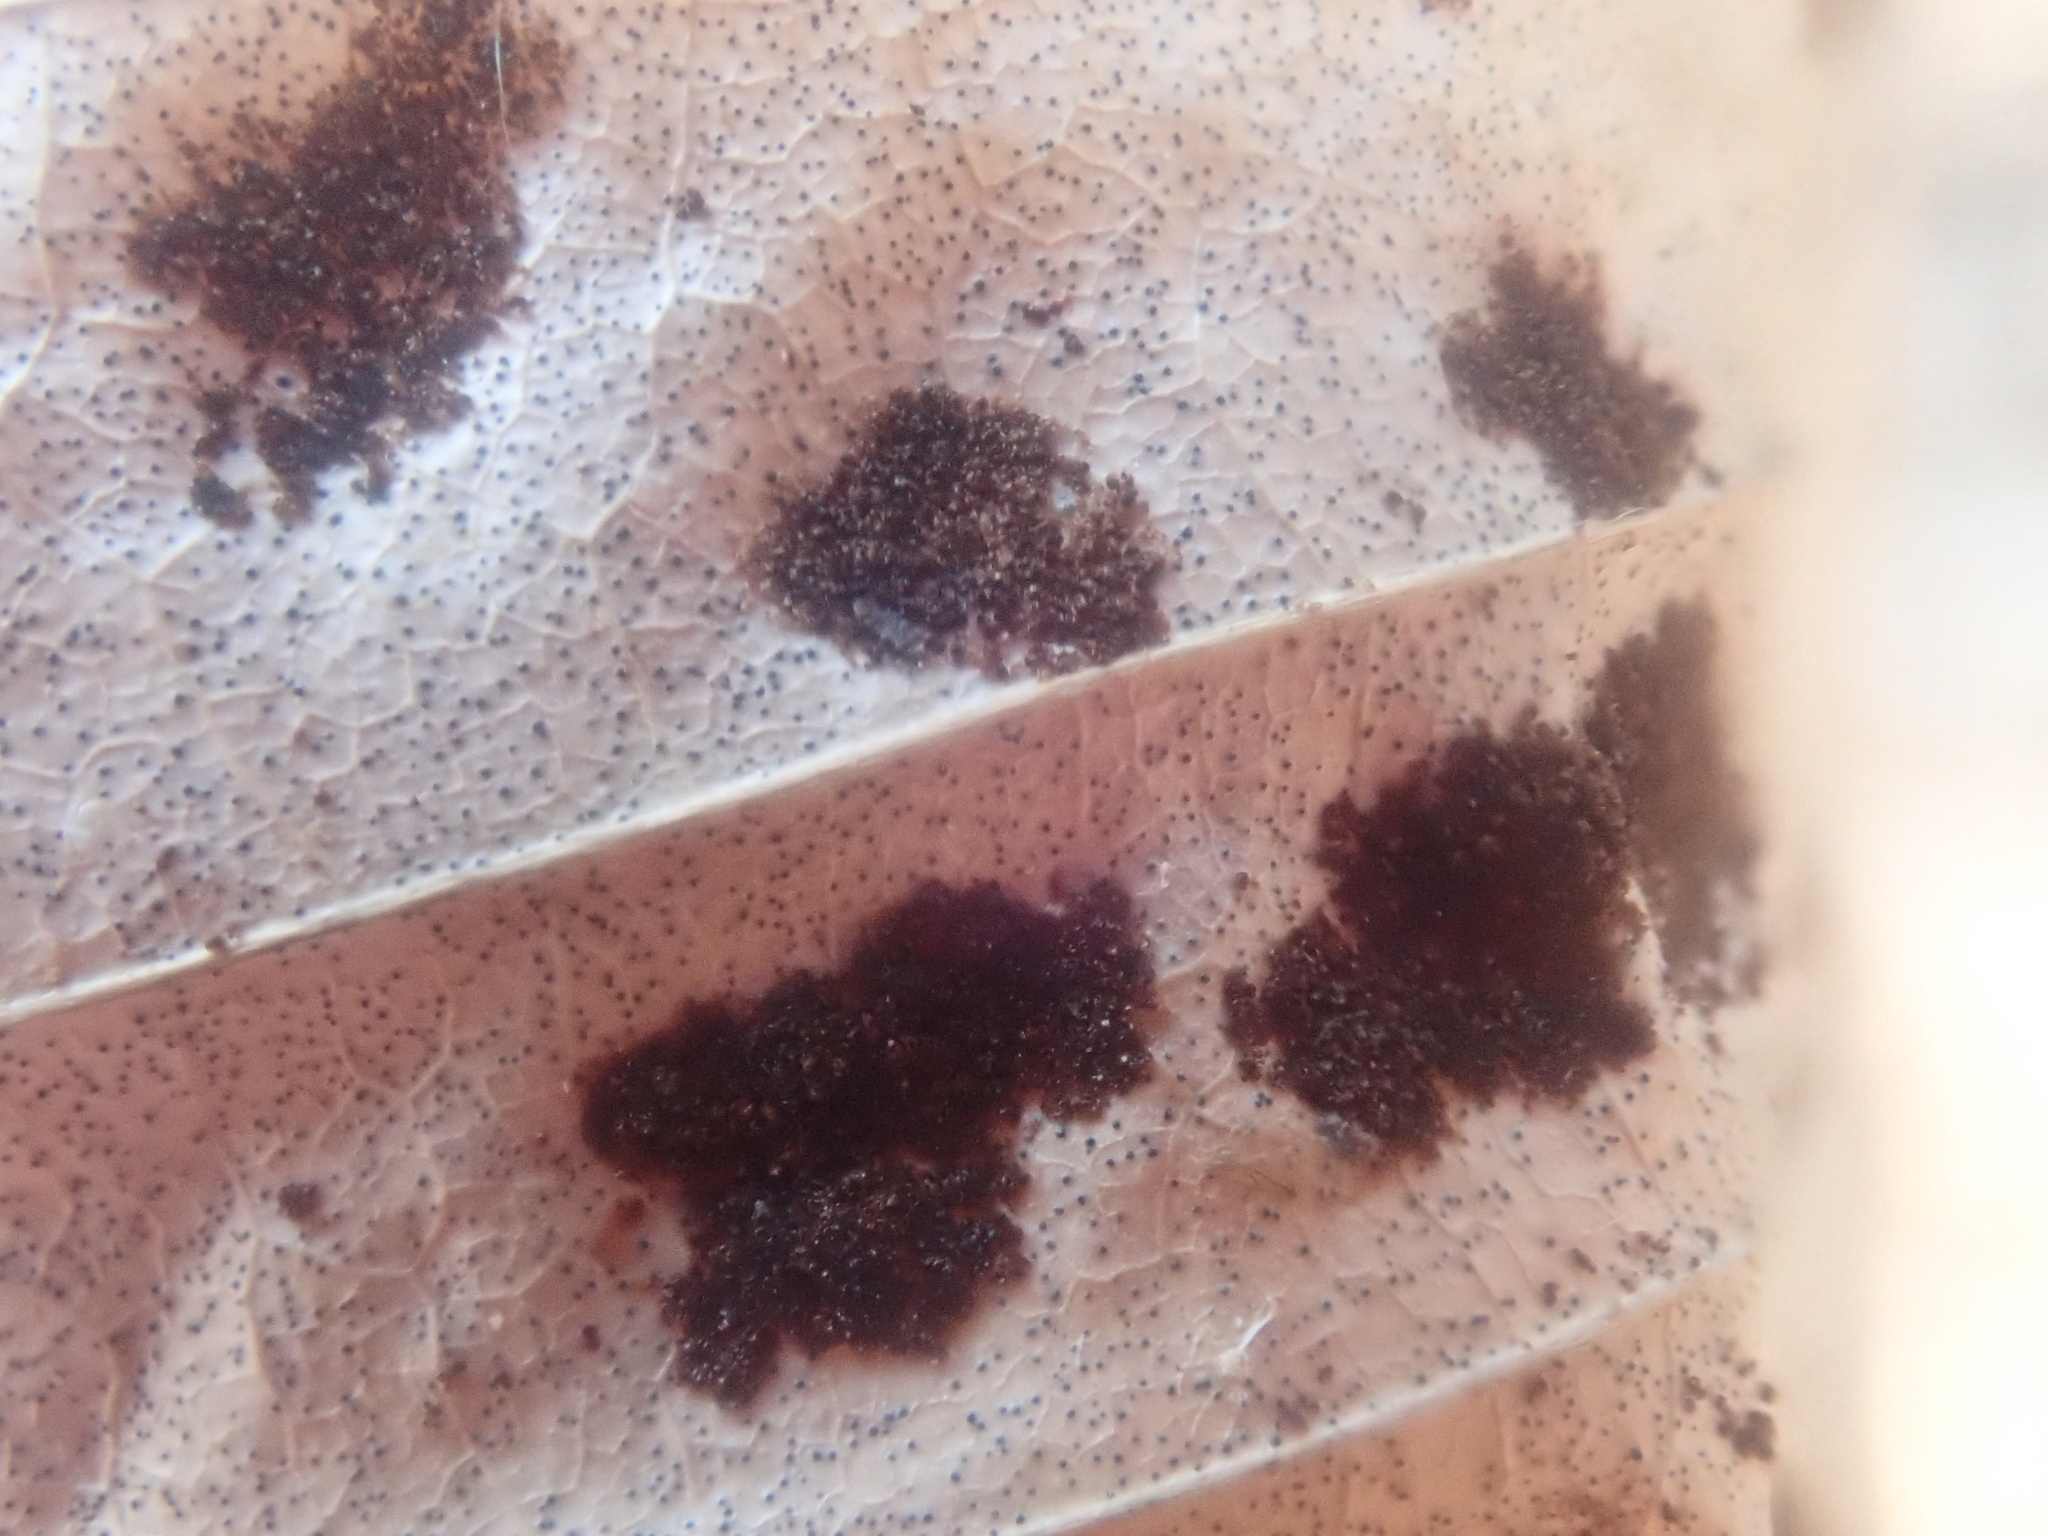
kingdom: Animalia
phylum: Arthropoda
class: Arachnida
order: Trombidiformes
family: Eriophyidae
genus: Acalitus
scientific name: Acalitus
